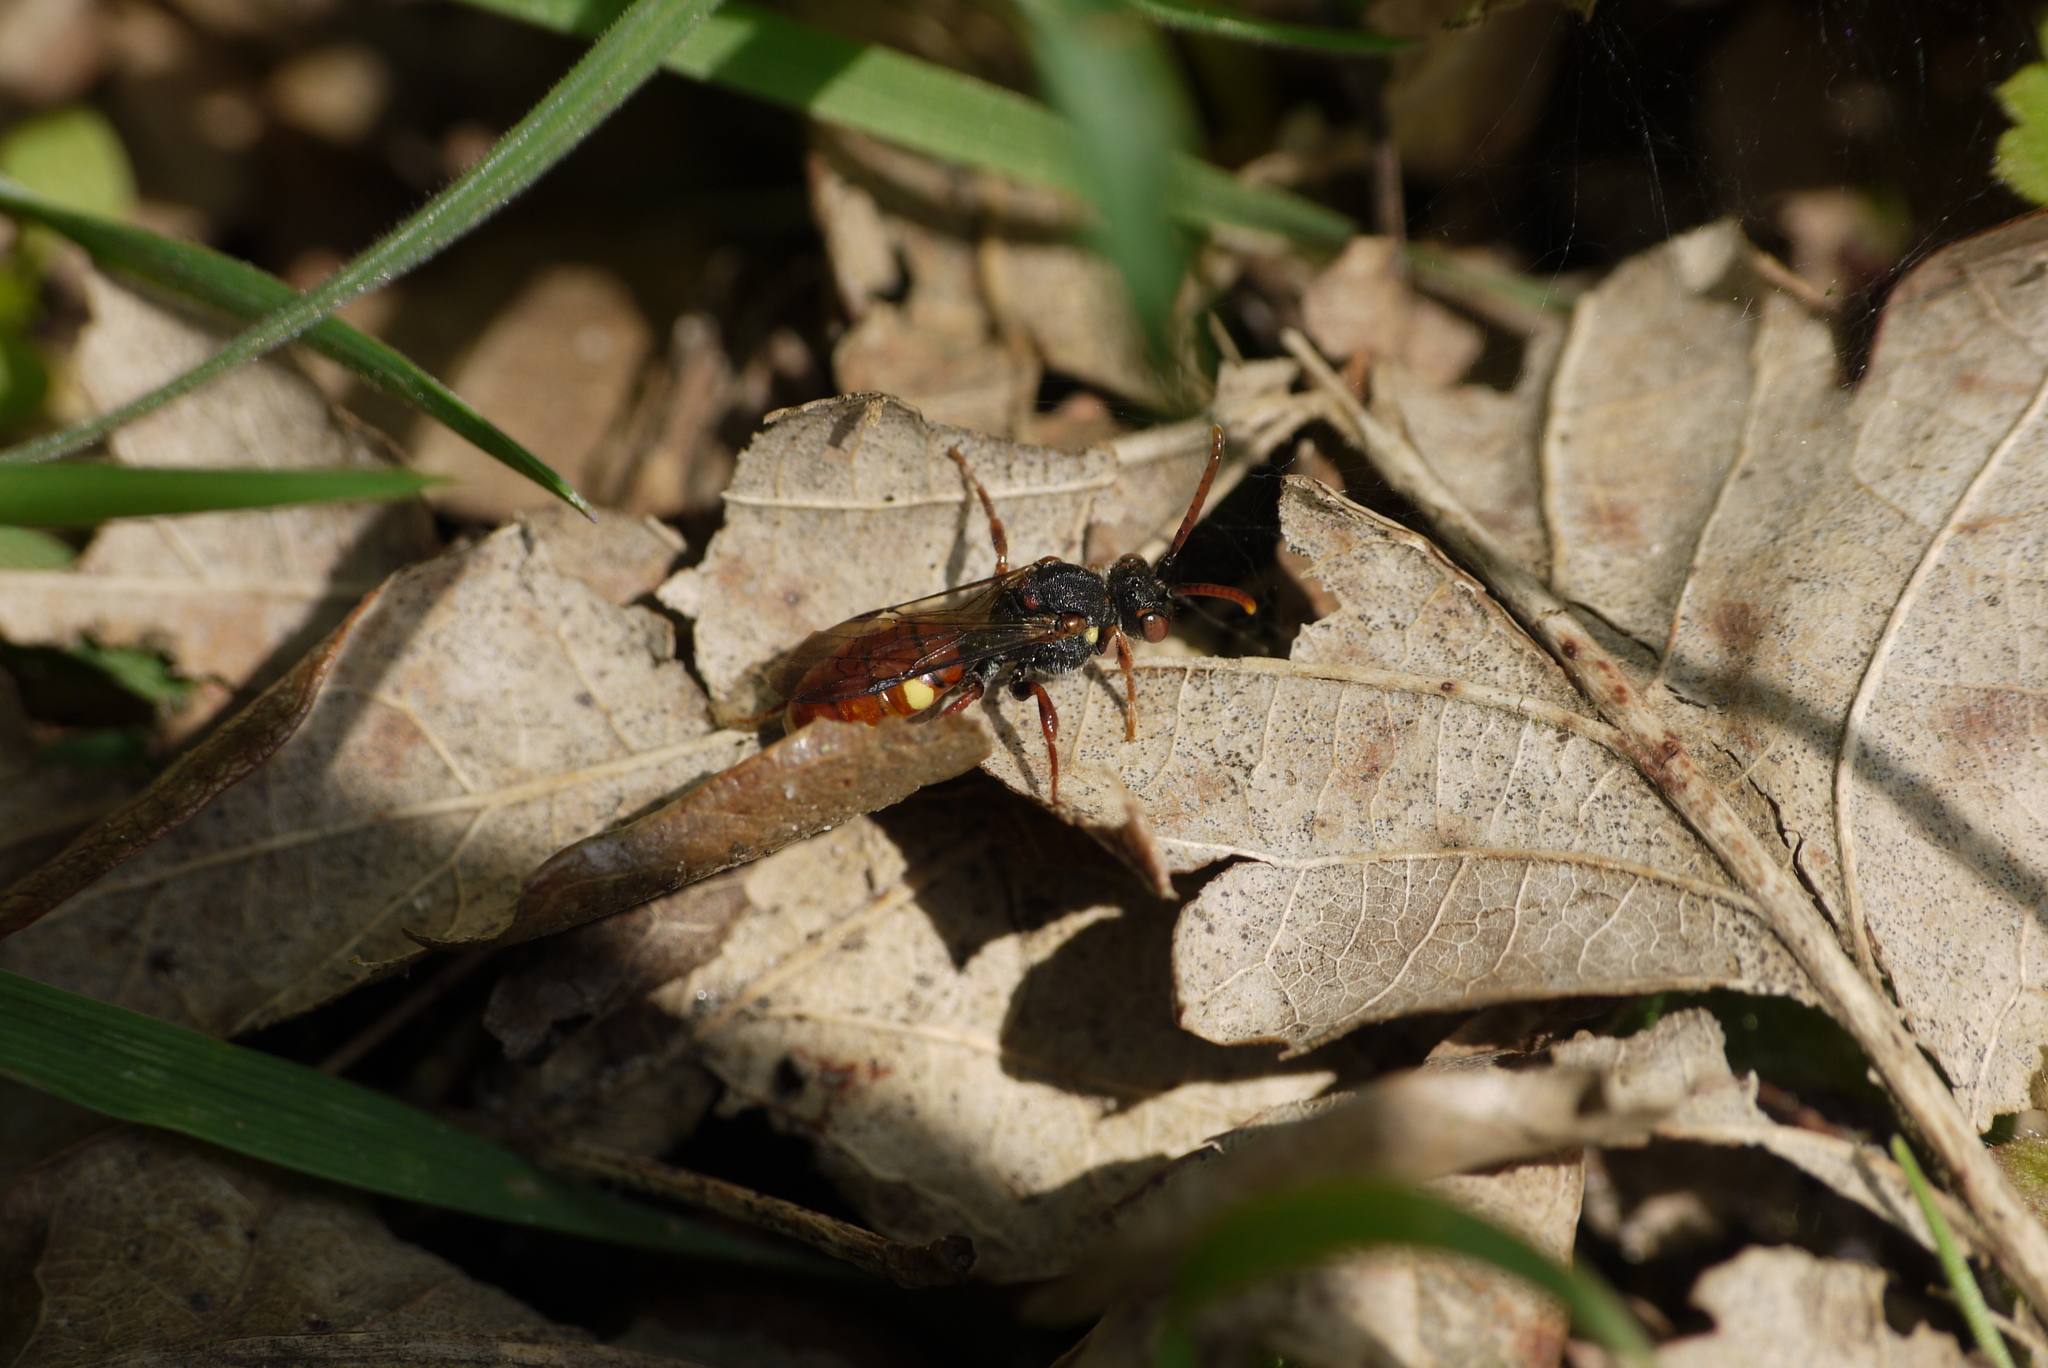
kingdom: Animalia
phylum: Arthropoda
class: Insecta
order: Hymenoptera
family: Apidae
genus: Nomada
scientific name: Nomada ferruginata
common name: Yellow-shouldered nomad bee
